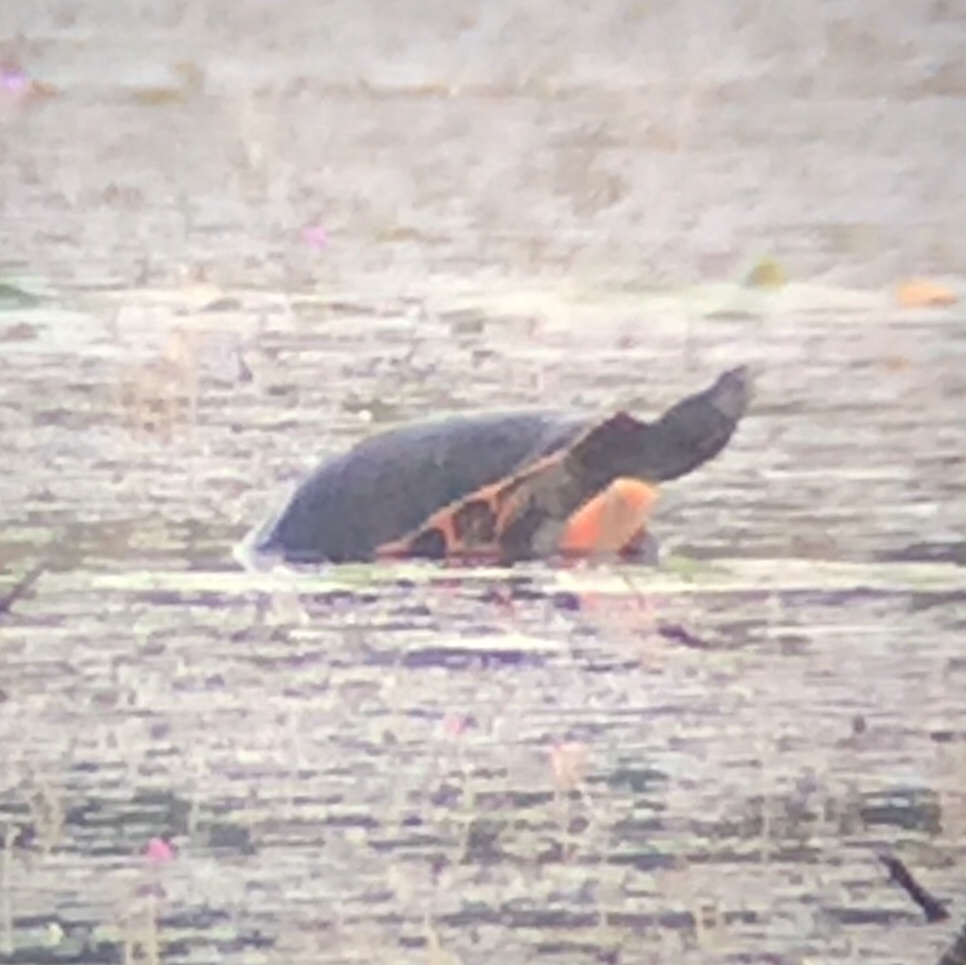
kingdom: Animalia
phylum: Chordata
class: Testudines
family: Emydidae
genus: Pseudemys
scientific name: Pseudemys rubriventris
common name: American red-bellied turtle
